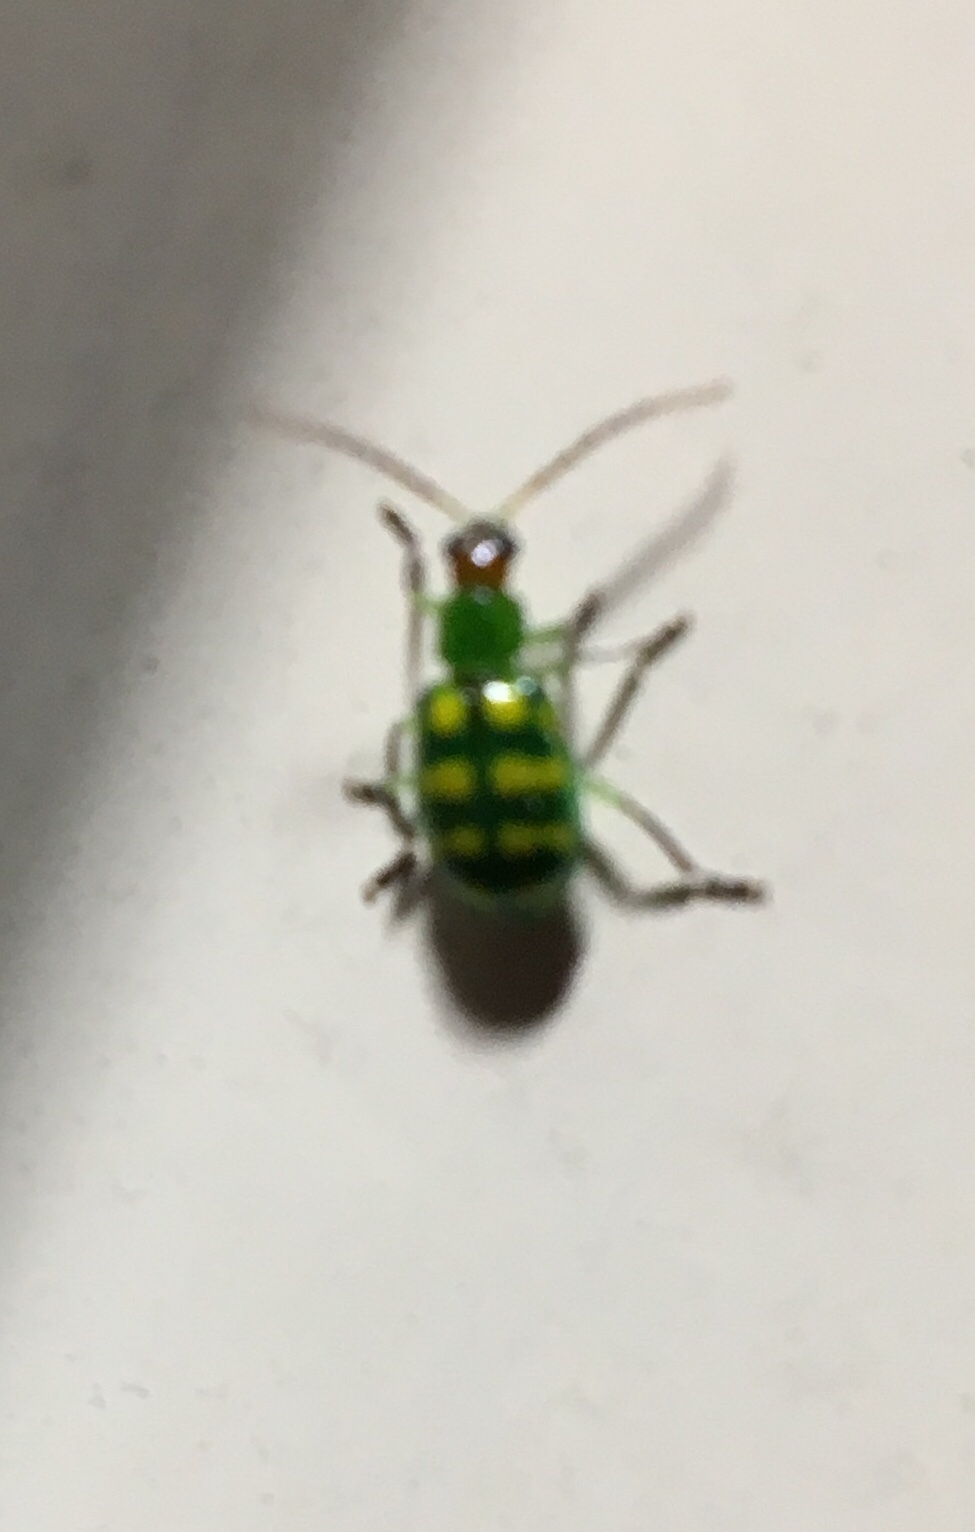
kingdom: Animalia
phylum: Arthropoda
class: Insecta
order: Coleoptera
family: Chrysomelidae
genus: Diabrotica
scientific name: Diabrotica balteata
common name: Leaf beetle
